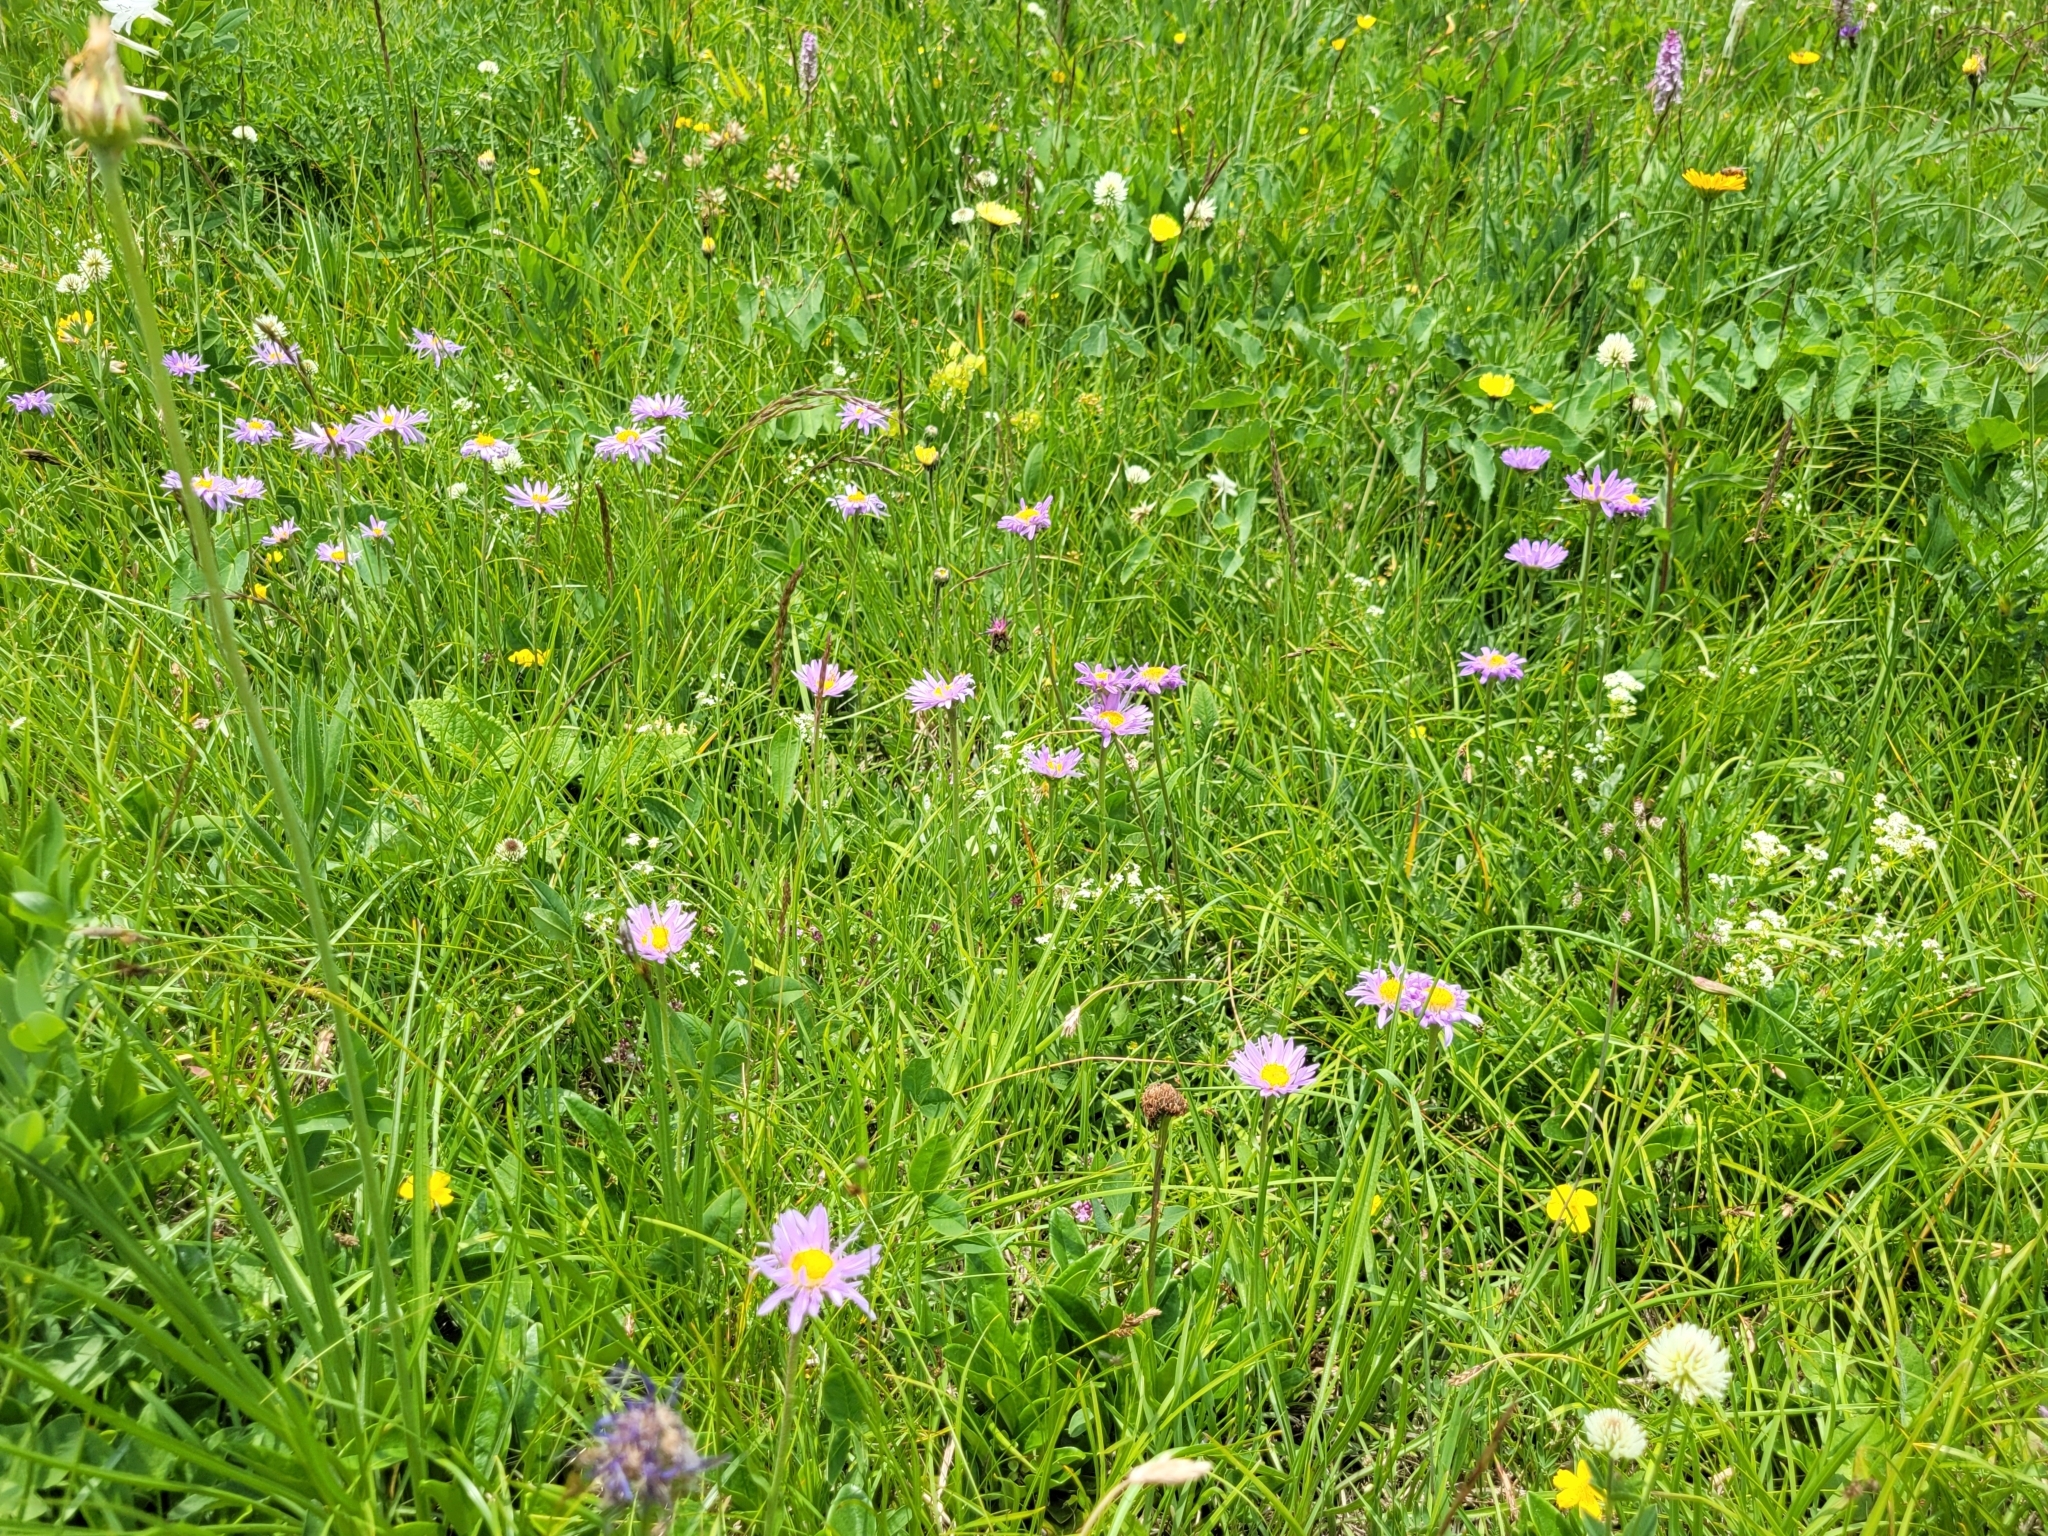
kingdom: Plantae
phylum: Tracheophyta
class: Magnoliopsida
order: Asterales
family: Asteraceae
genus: Aster
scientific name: Aster alpinus
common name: Alpine aster
